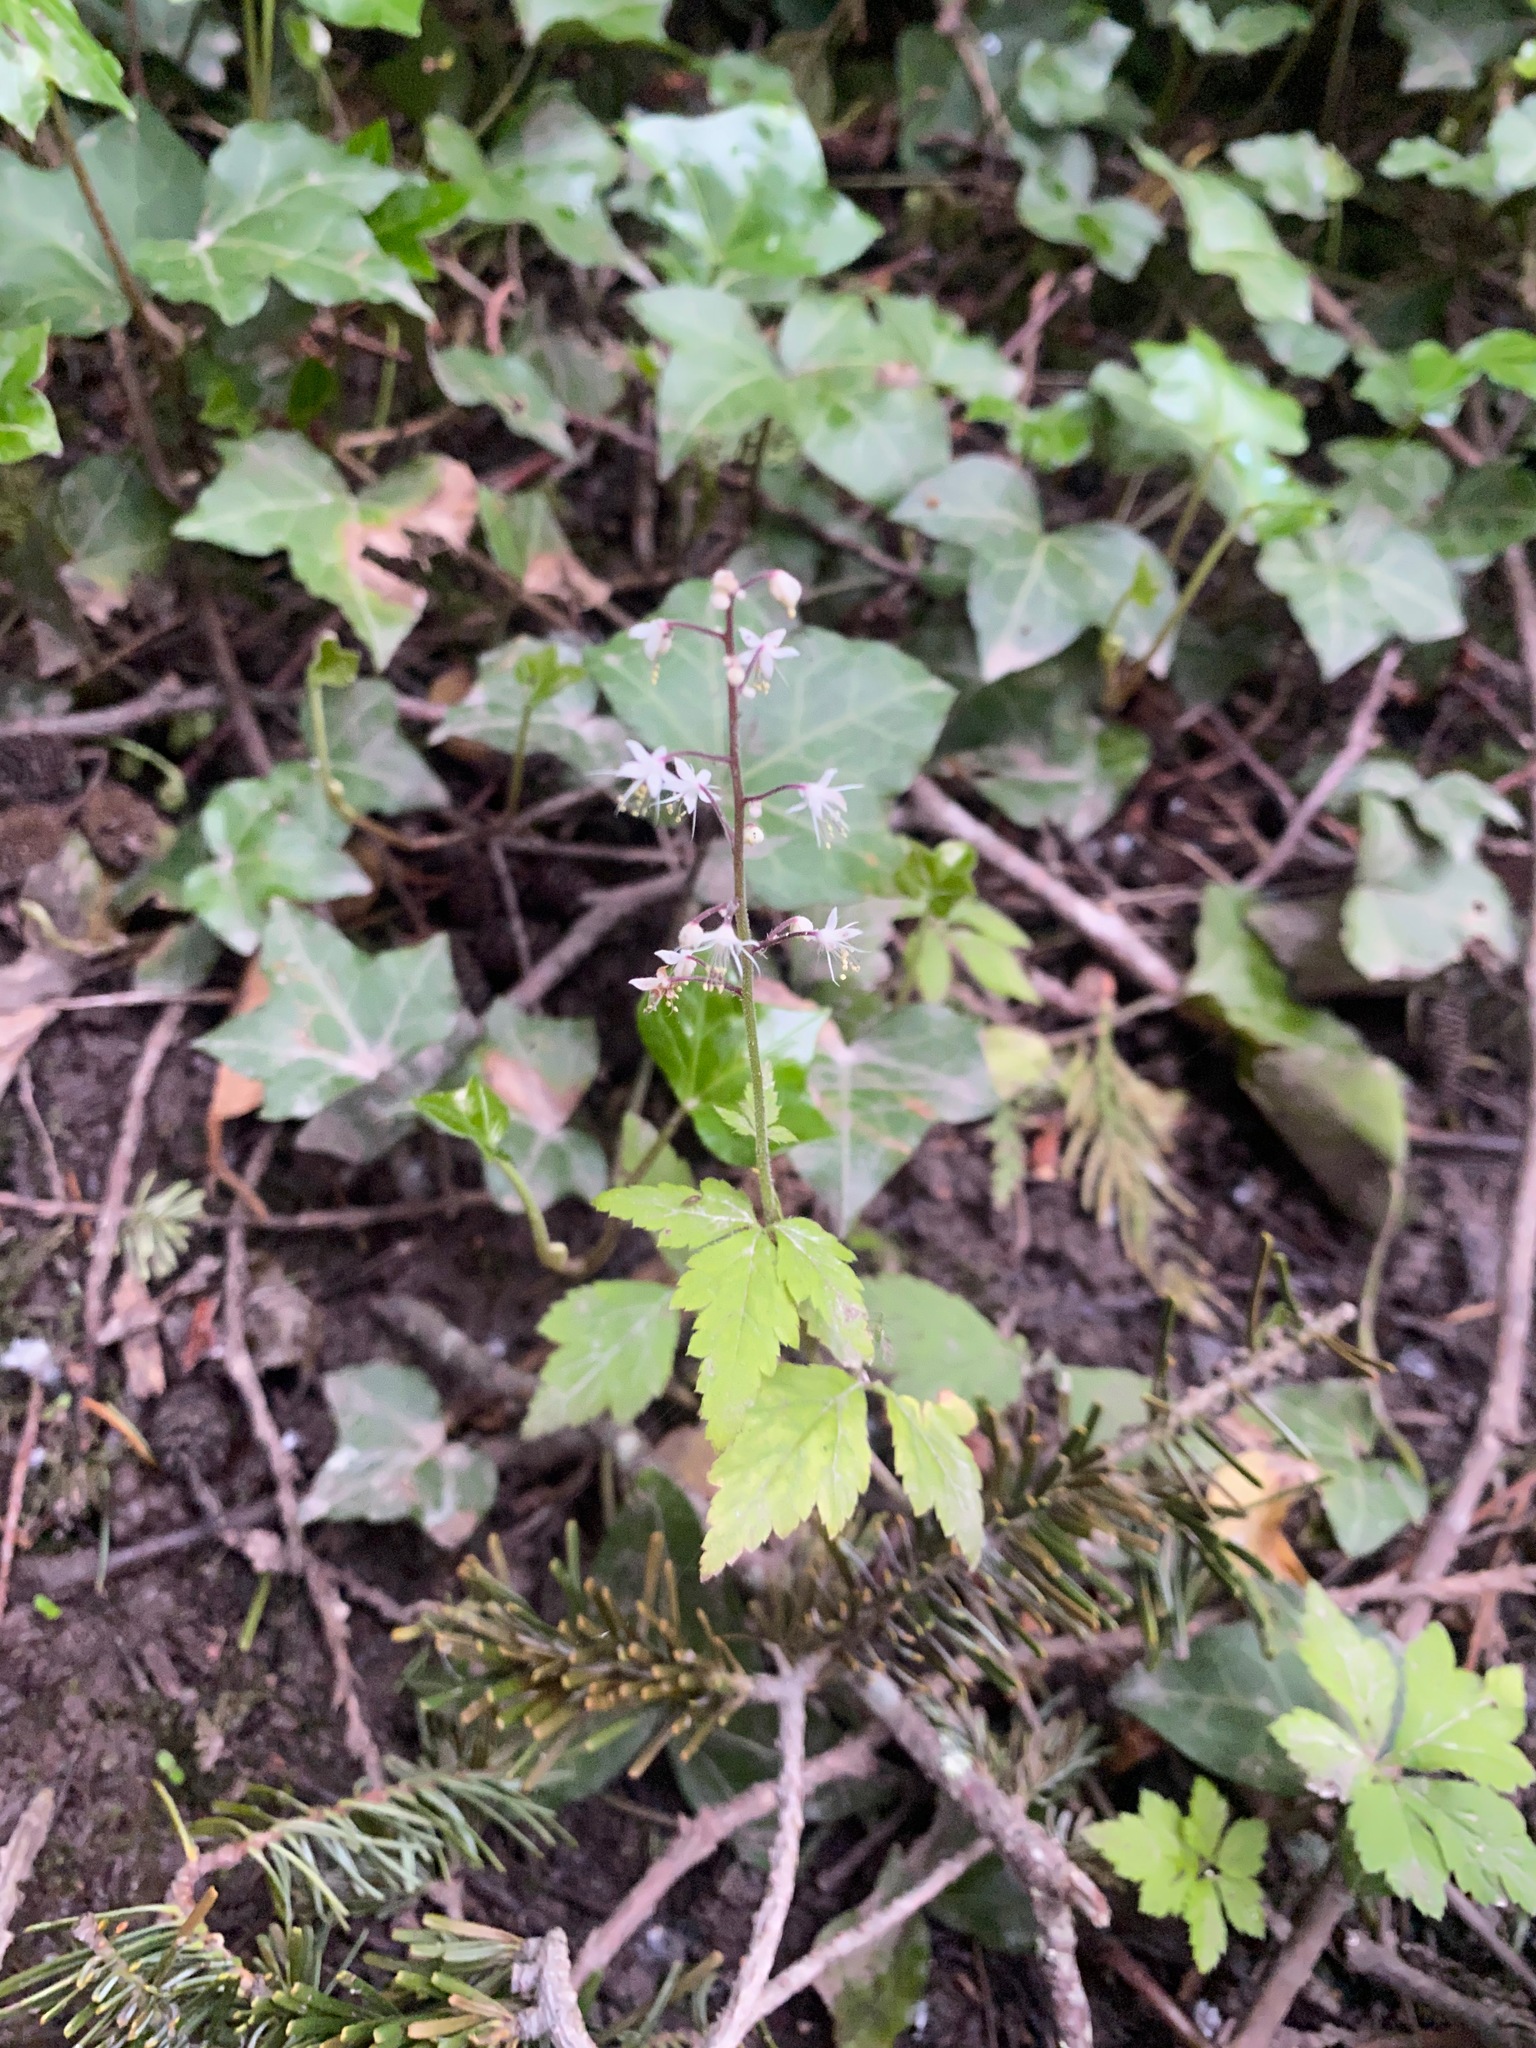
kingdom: Plantae
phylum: Tracheophyta
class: Magnoliopsida
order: Saxifragales
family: Saxifragaceae
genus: Tiarella
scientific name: Tiarella trifoliata
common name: Sugar-scoop
